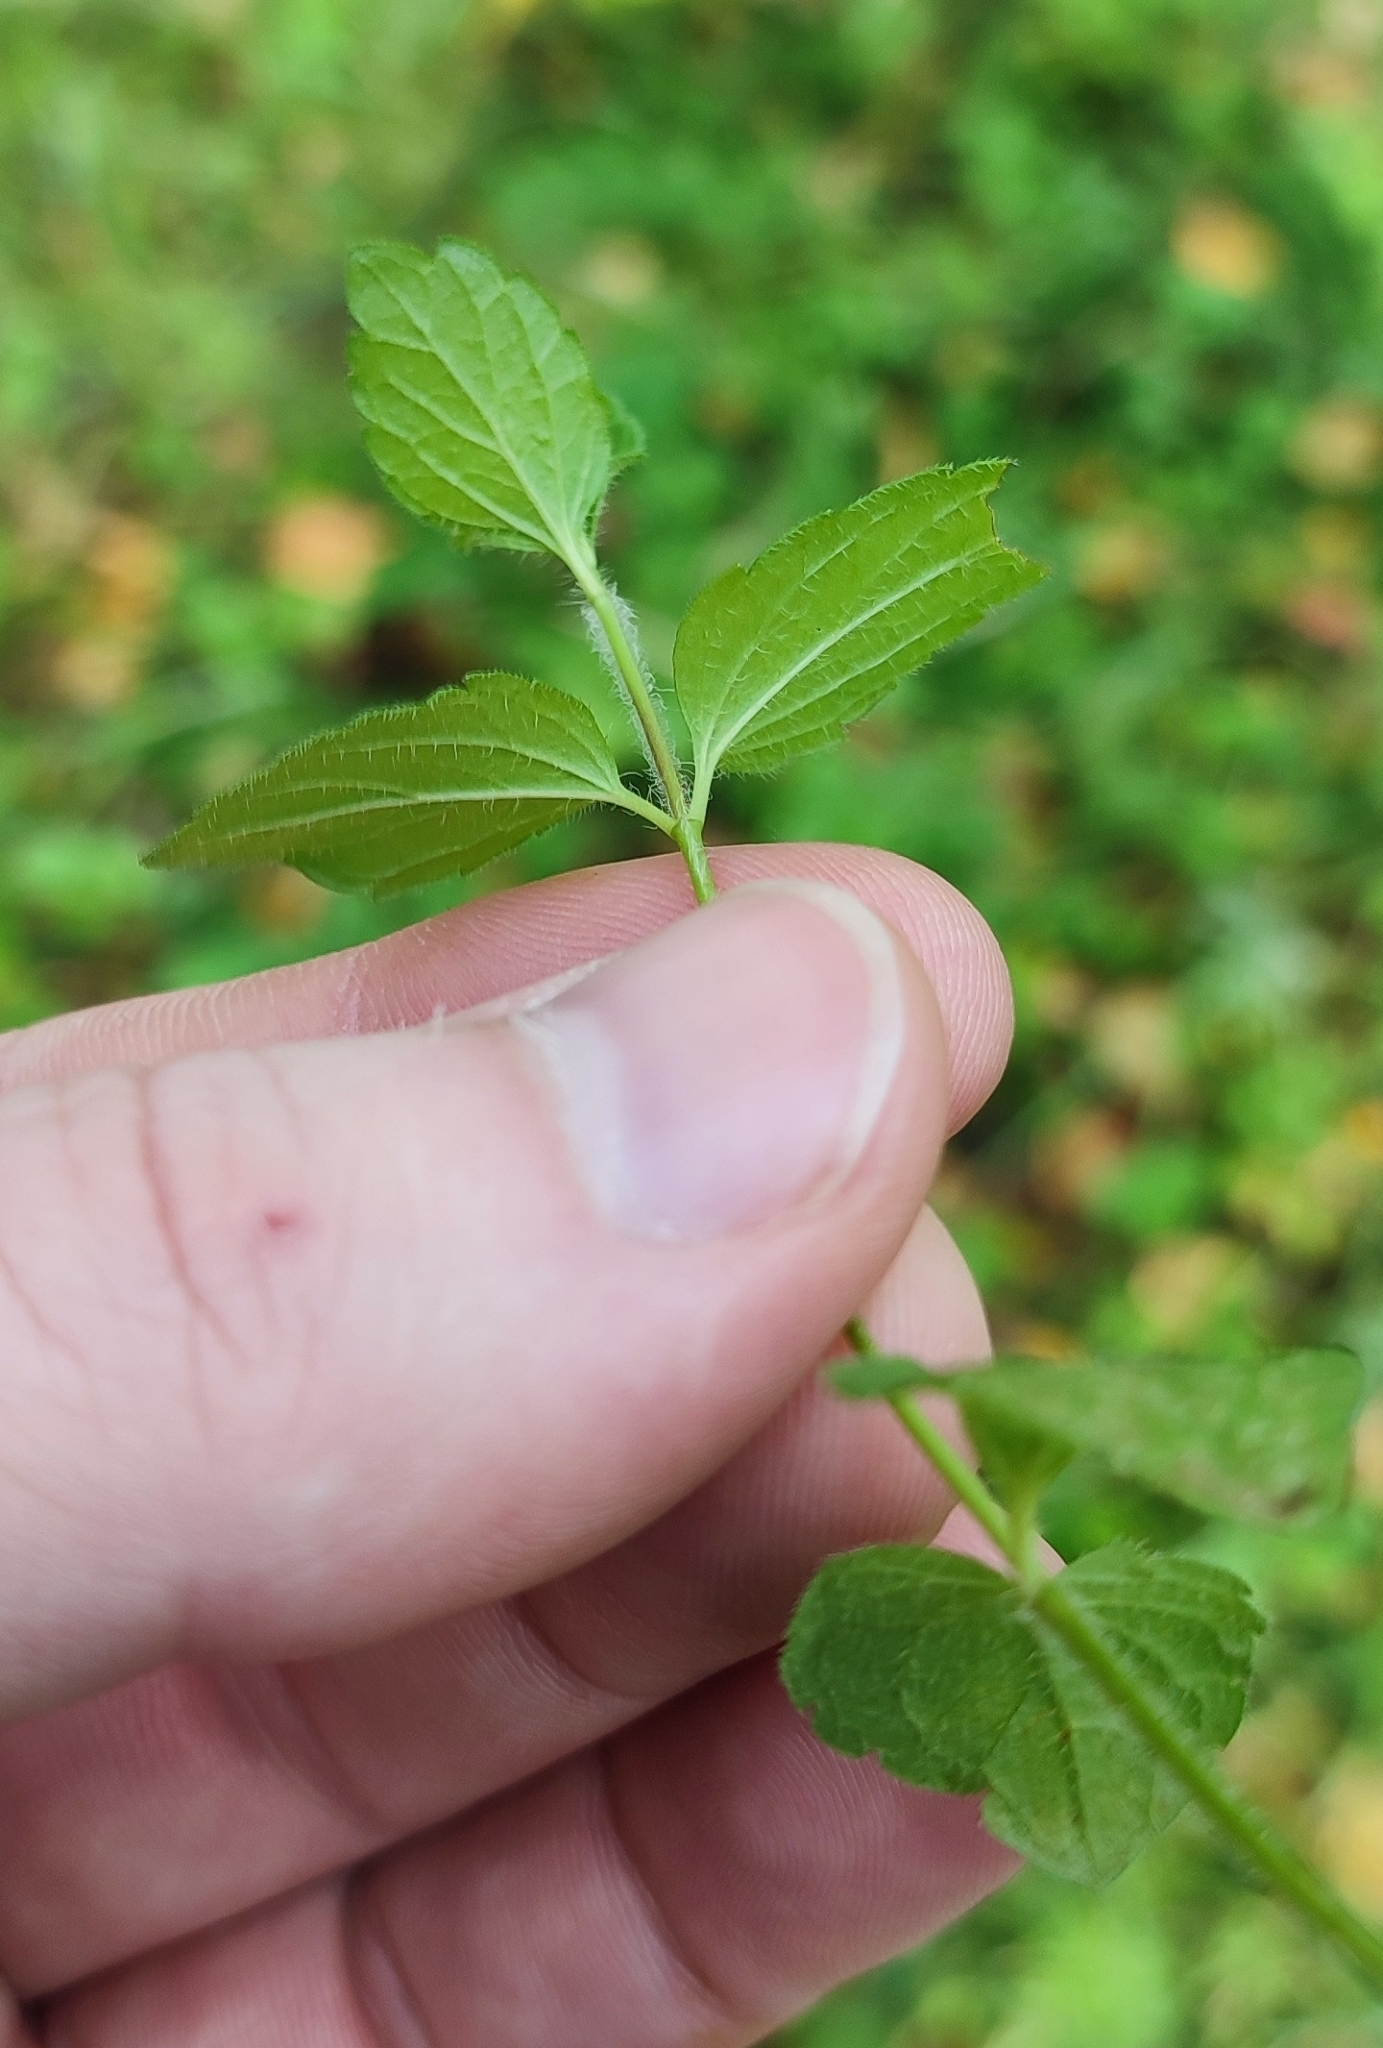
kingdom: Plantae
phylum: Tracheophyta
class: Magnoliopsida
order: Lamiales
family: Plantaginaceae
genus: Veronica
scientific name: Veronica chamaedrys
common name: Germander speedwell
